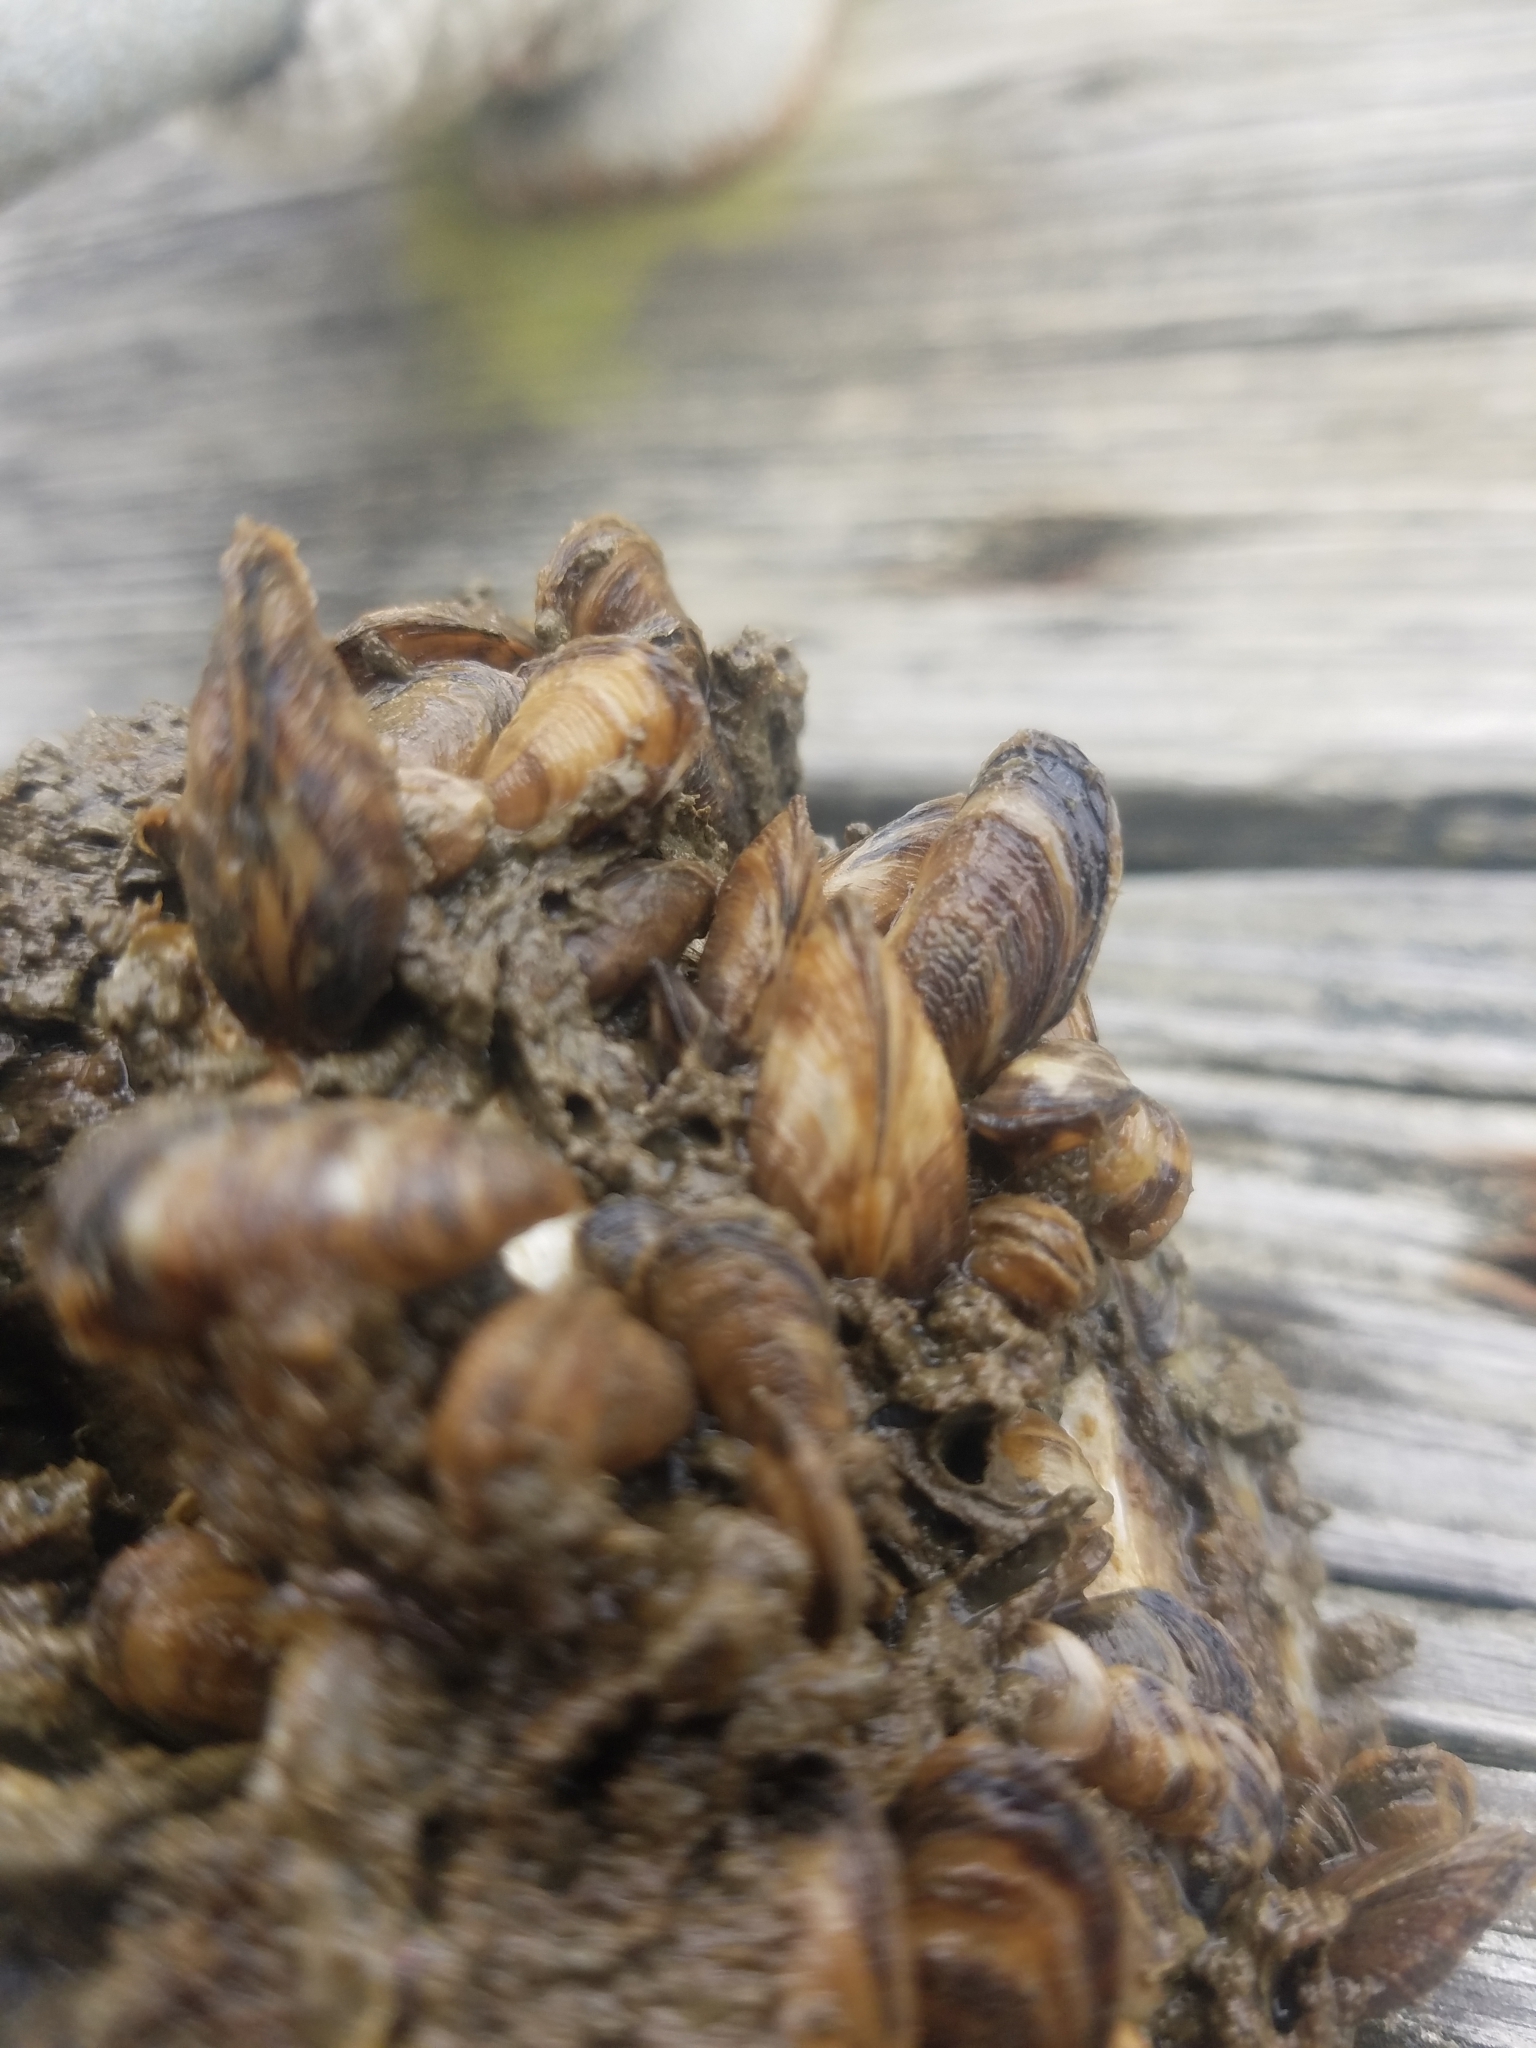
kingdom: Animalia
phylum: Mollusca
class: Bivalvia
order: Myida
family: Dreissenidae
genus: Mytilopsis
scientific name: Mytilopsis leucophaeata
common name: Conrad's false mussel
